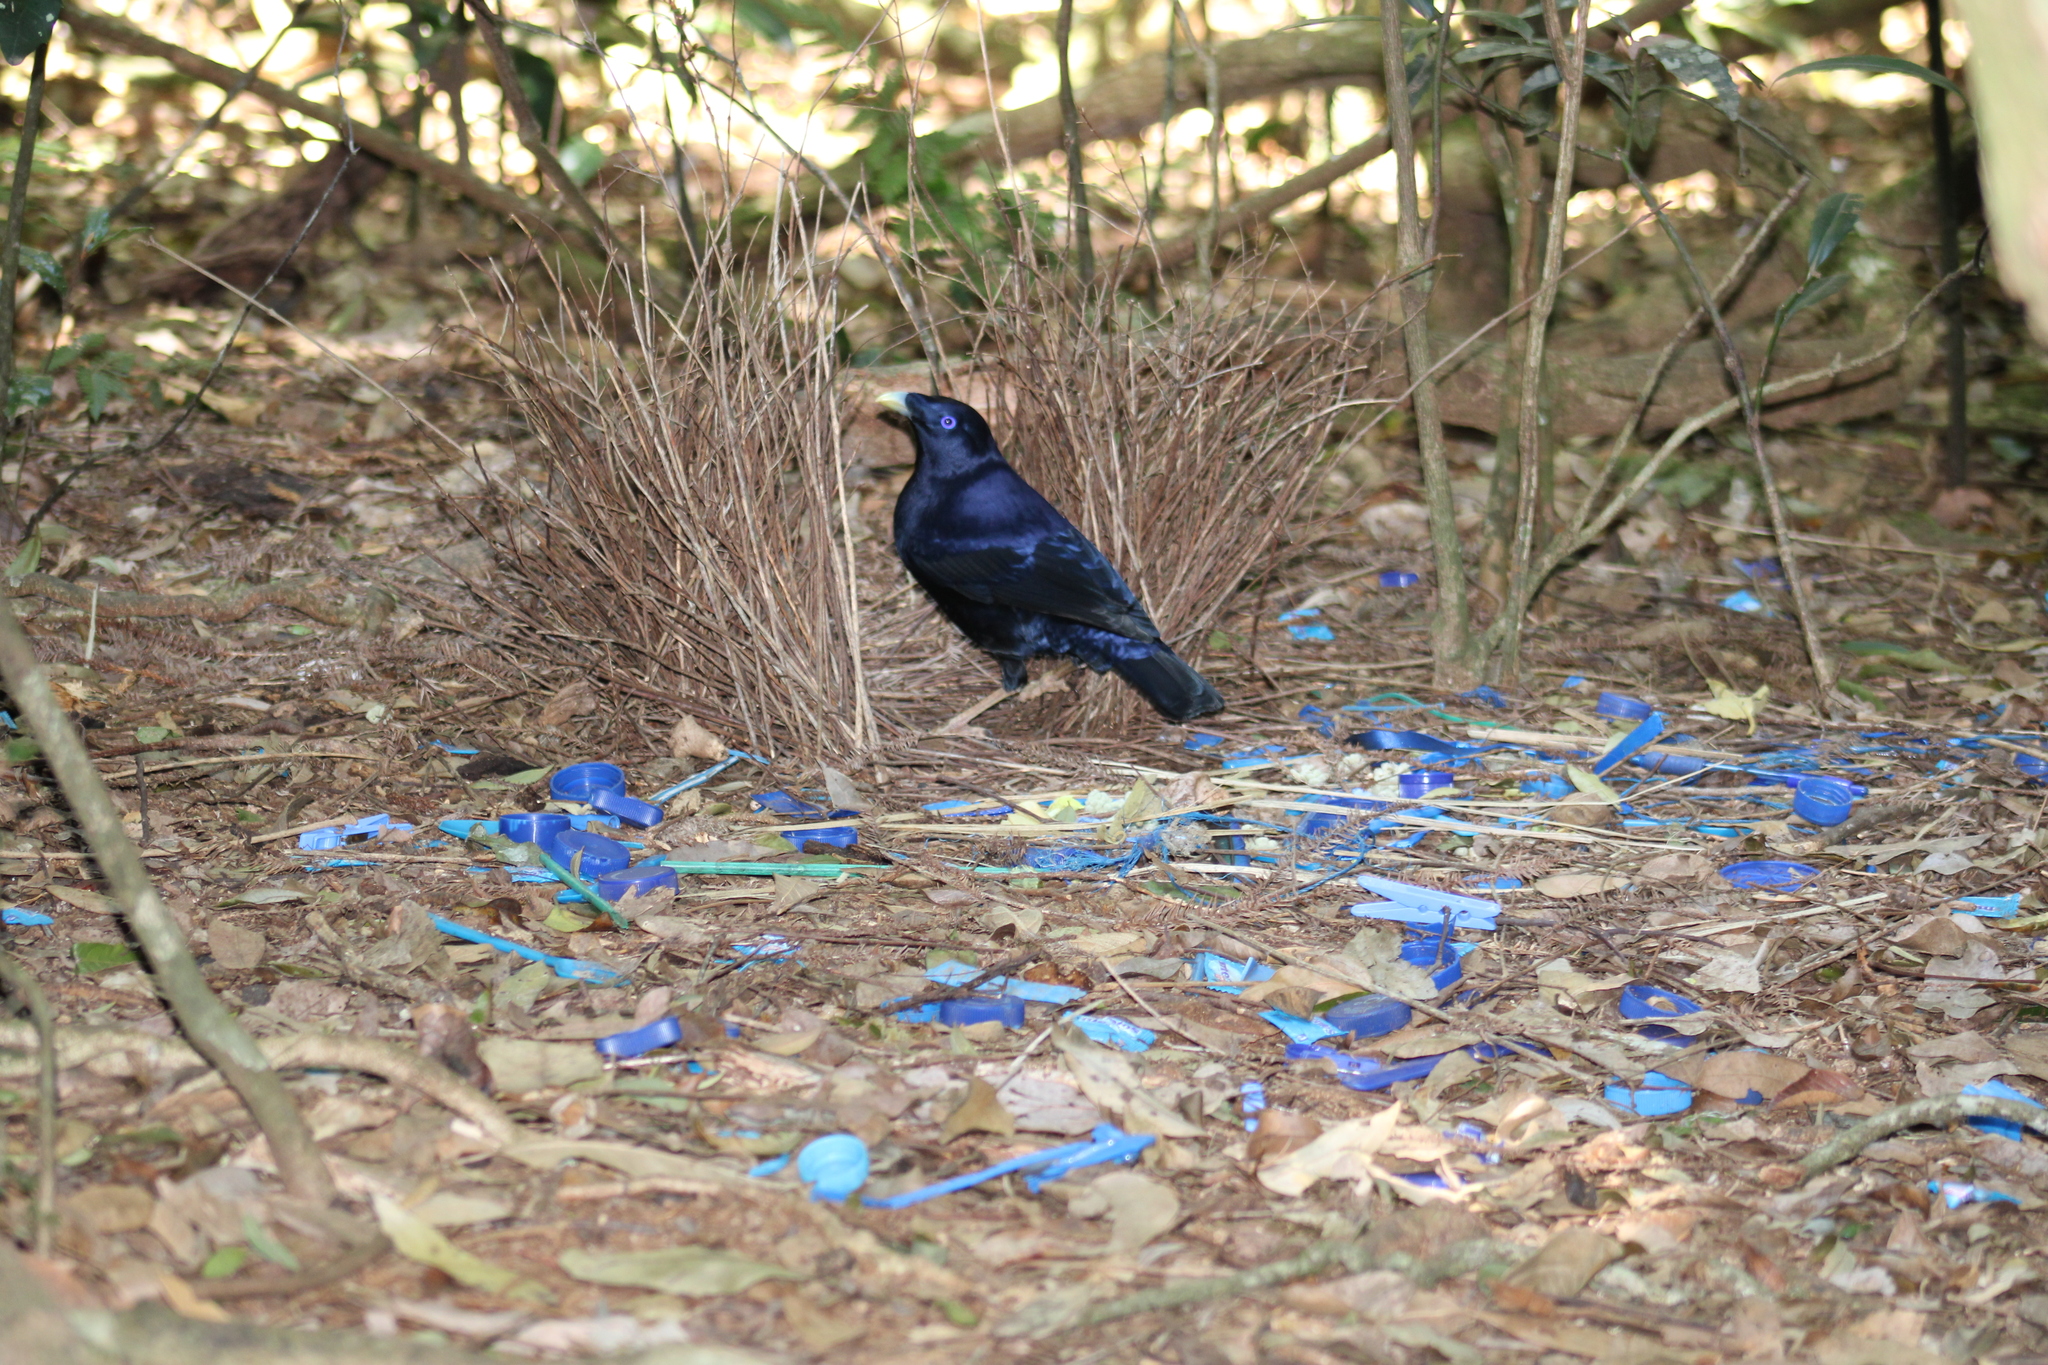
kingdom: Animalia
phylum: Chordata
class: Aves
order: Passeriformes
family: Ptilonorhynchidae
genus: Ptilonorhynchus
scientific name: Ptilonorhynchus violaceus
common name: Satin bowerbird
